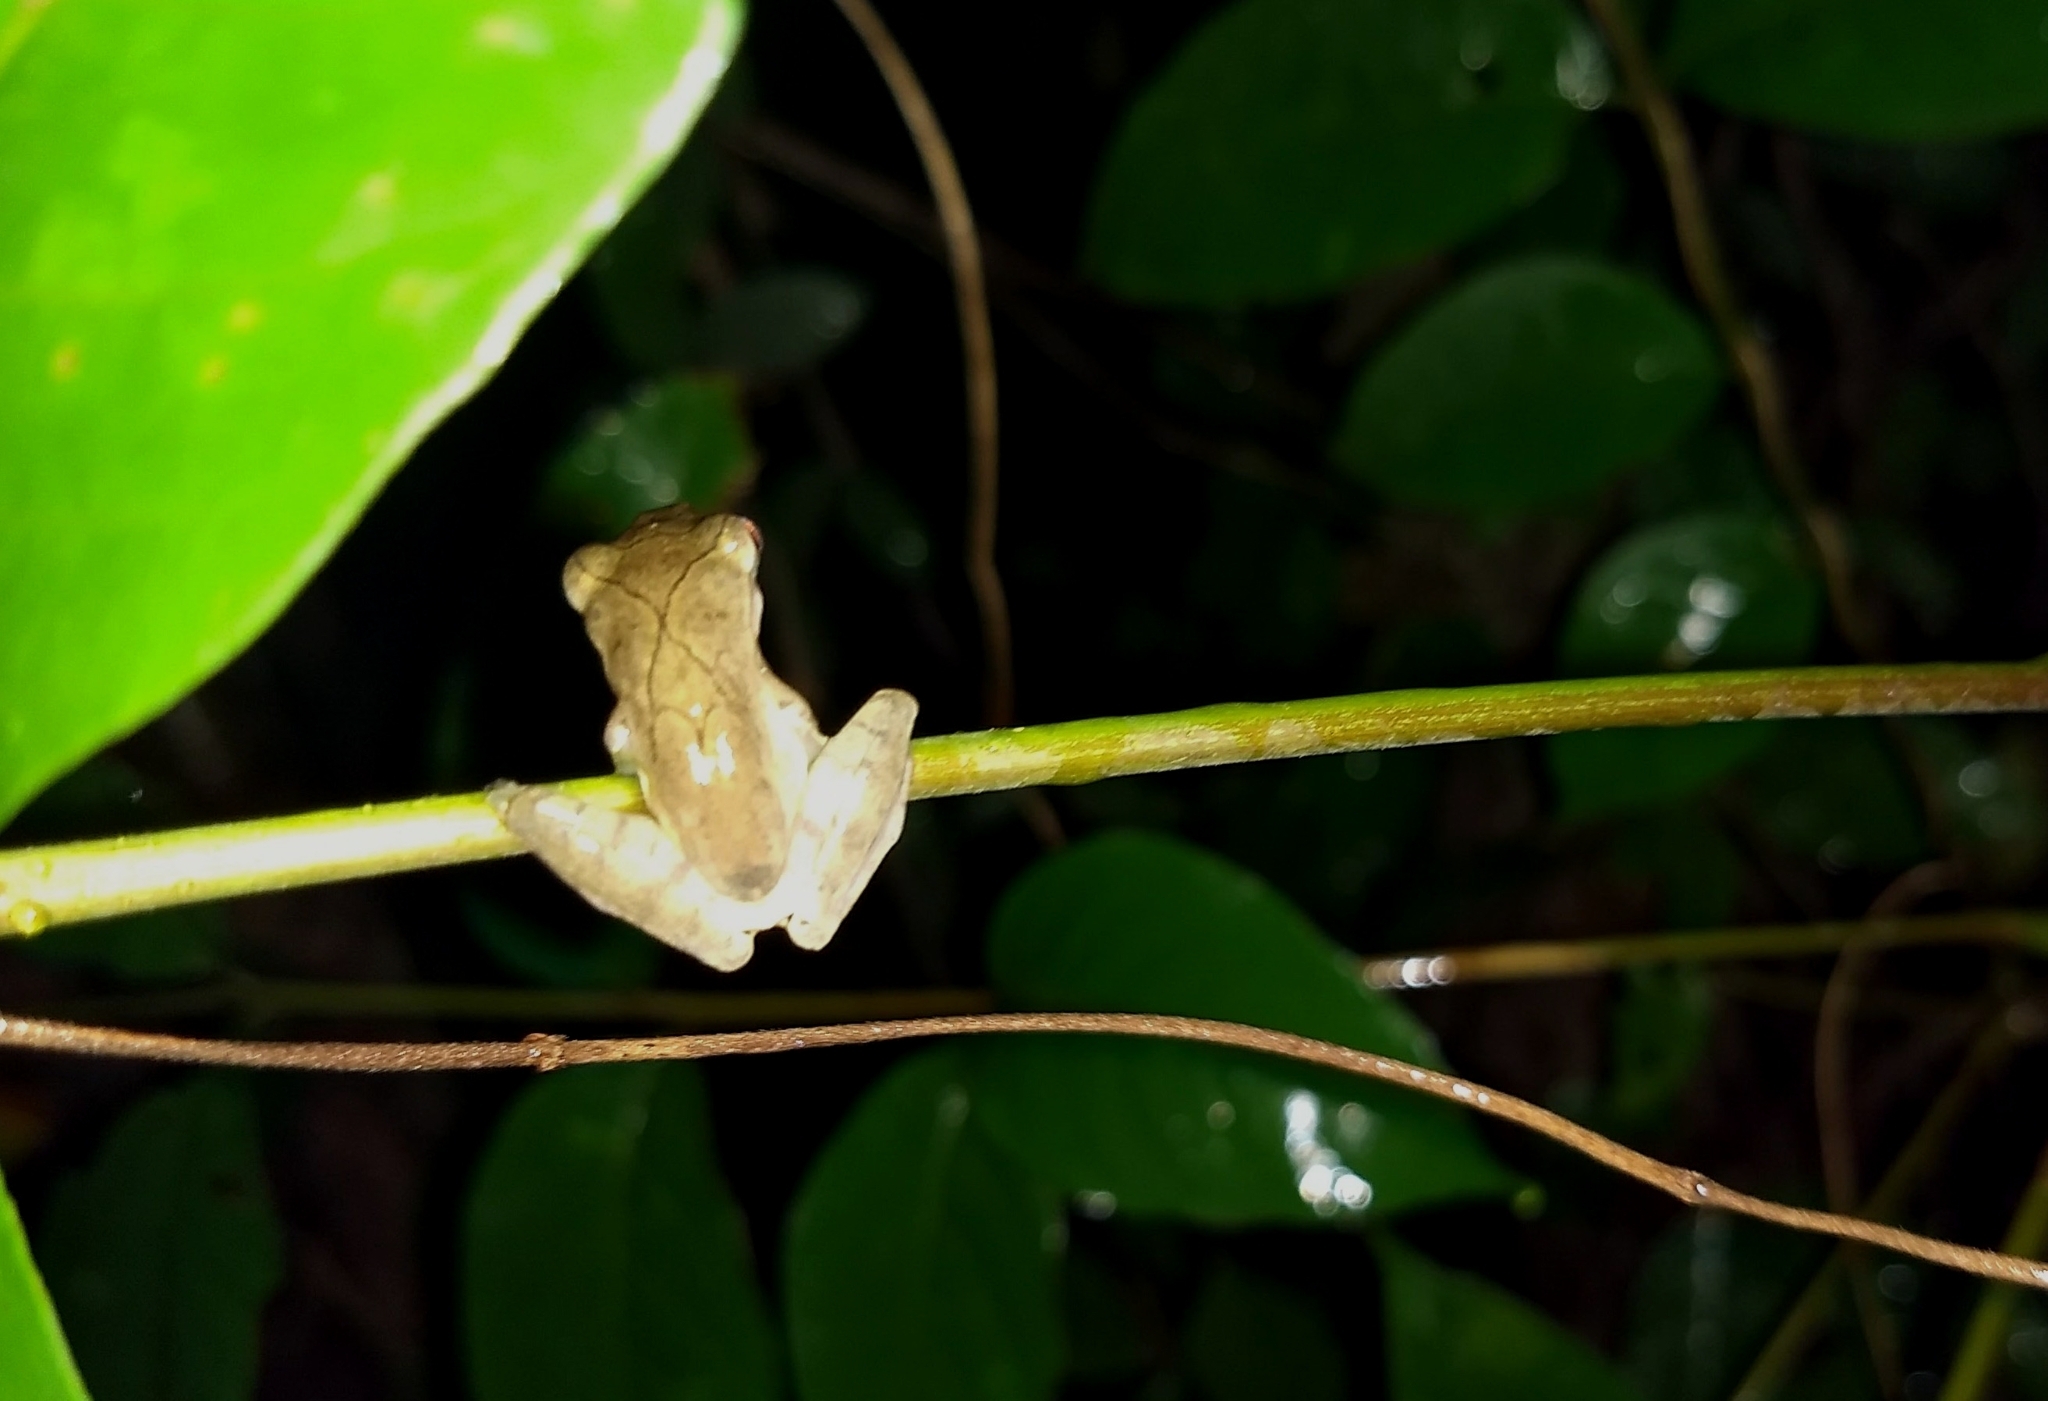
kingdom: Animalia
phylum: Chordata
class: Amphibia
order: Anura
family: Rhacophoridae
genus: Polypedates
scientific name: Polypedates occidentalis
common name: Charpa tree frog
